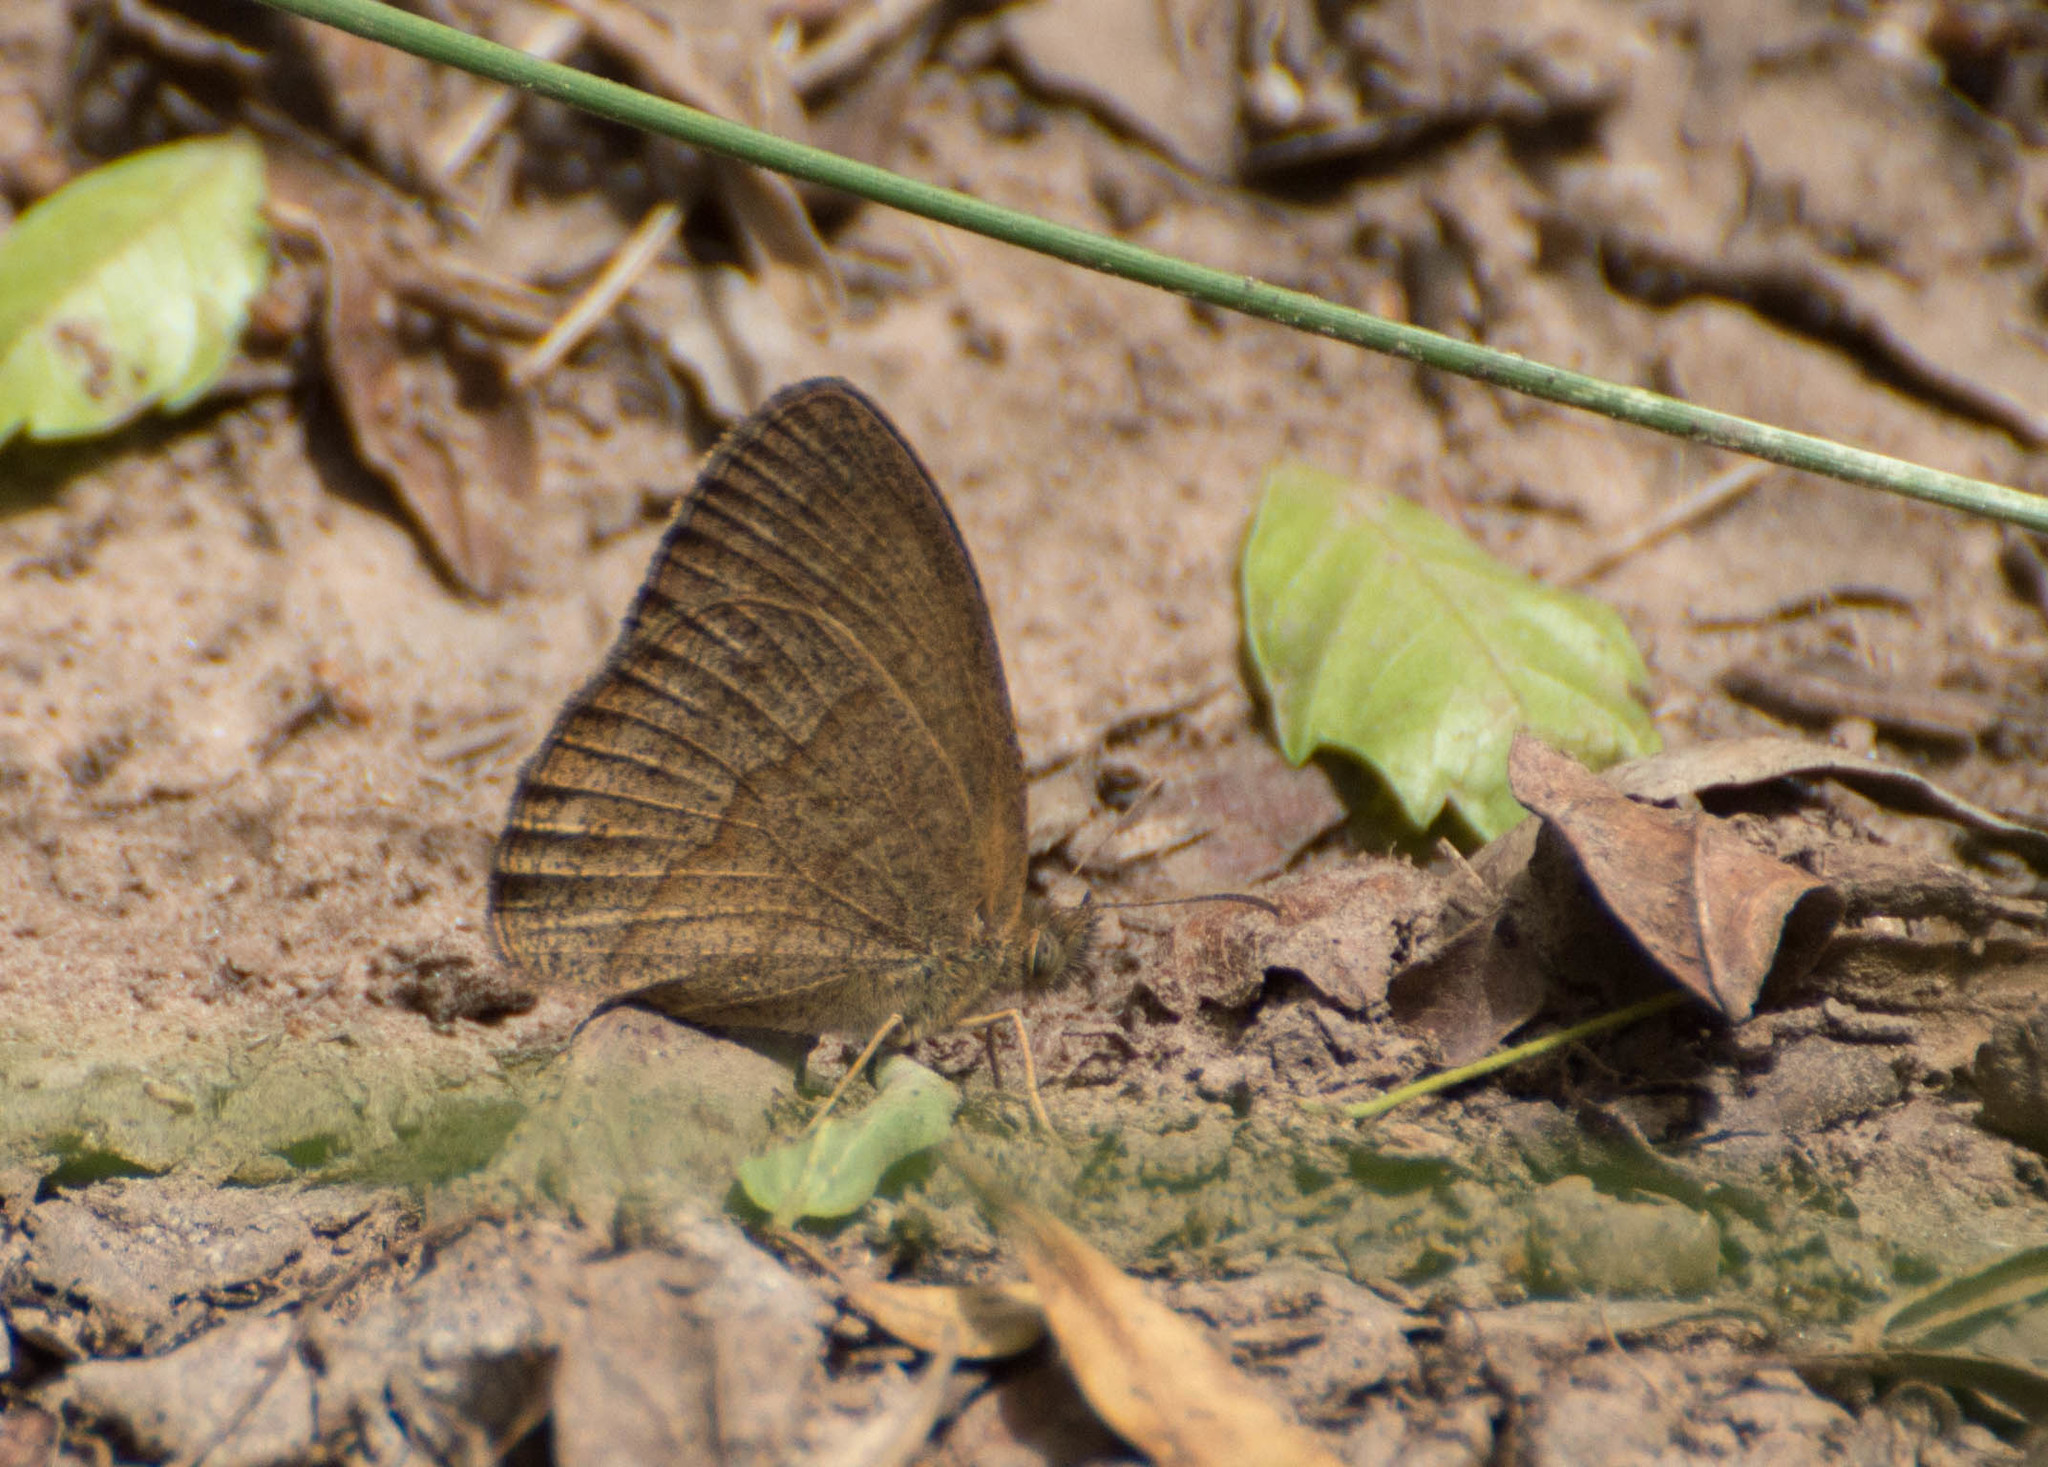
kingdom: Animalia
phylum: Arthropoda
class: Insecta
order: Lepidoptera
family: Nymphalidae
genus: Yphthimoides
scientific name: Yphthimoides celmis
